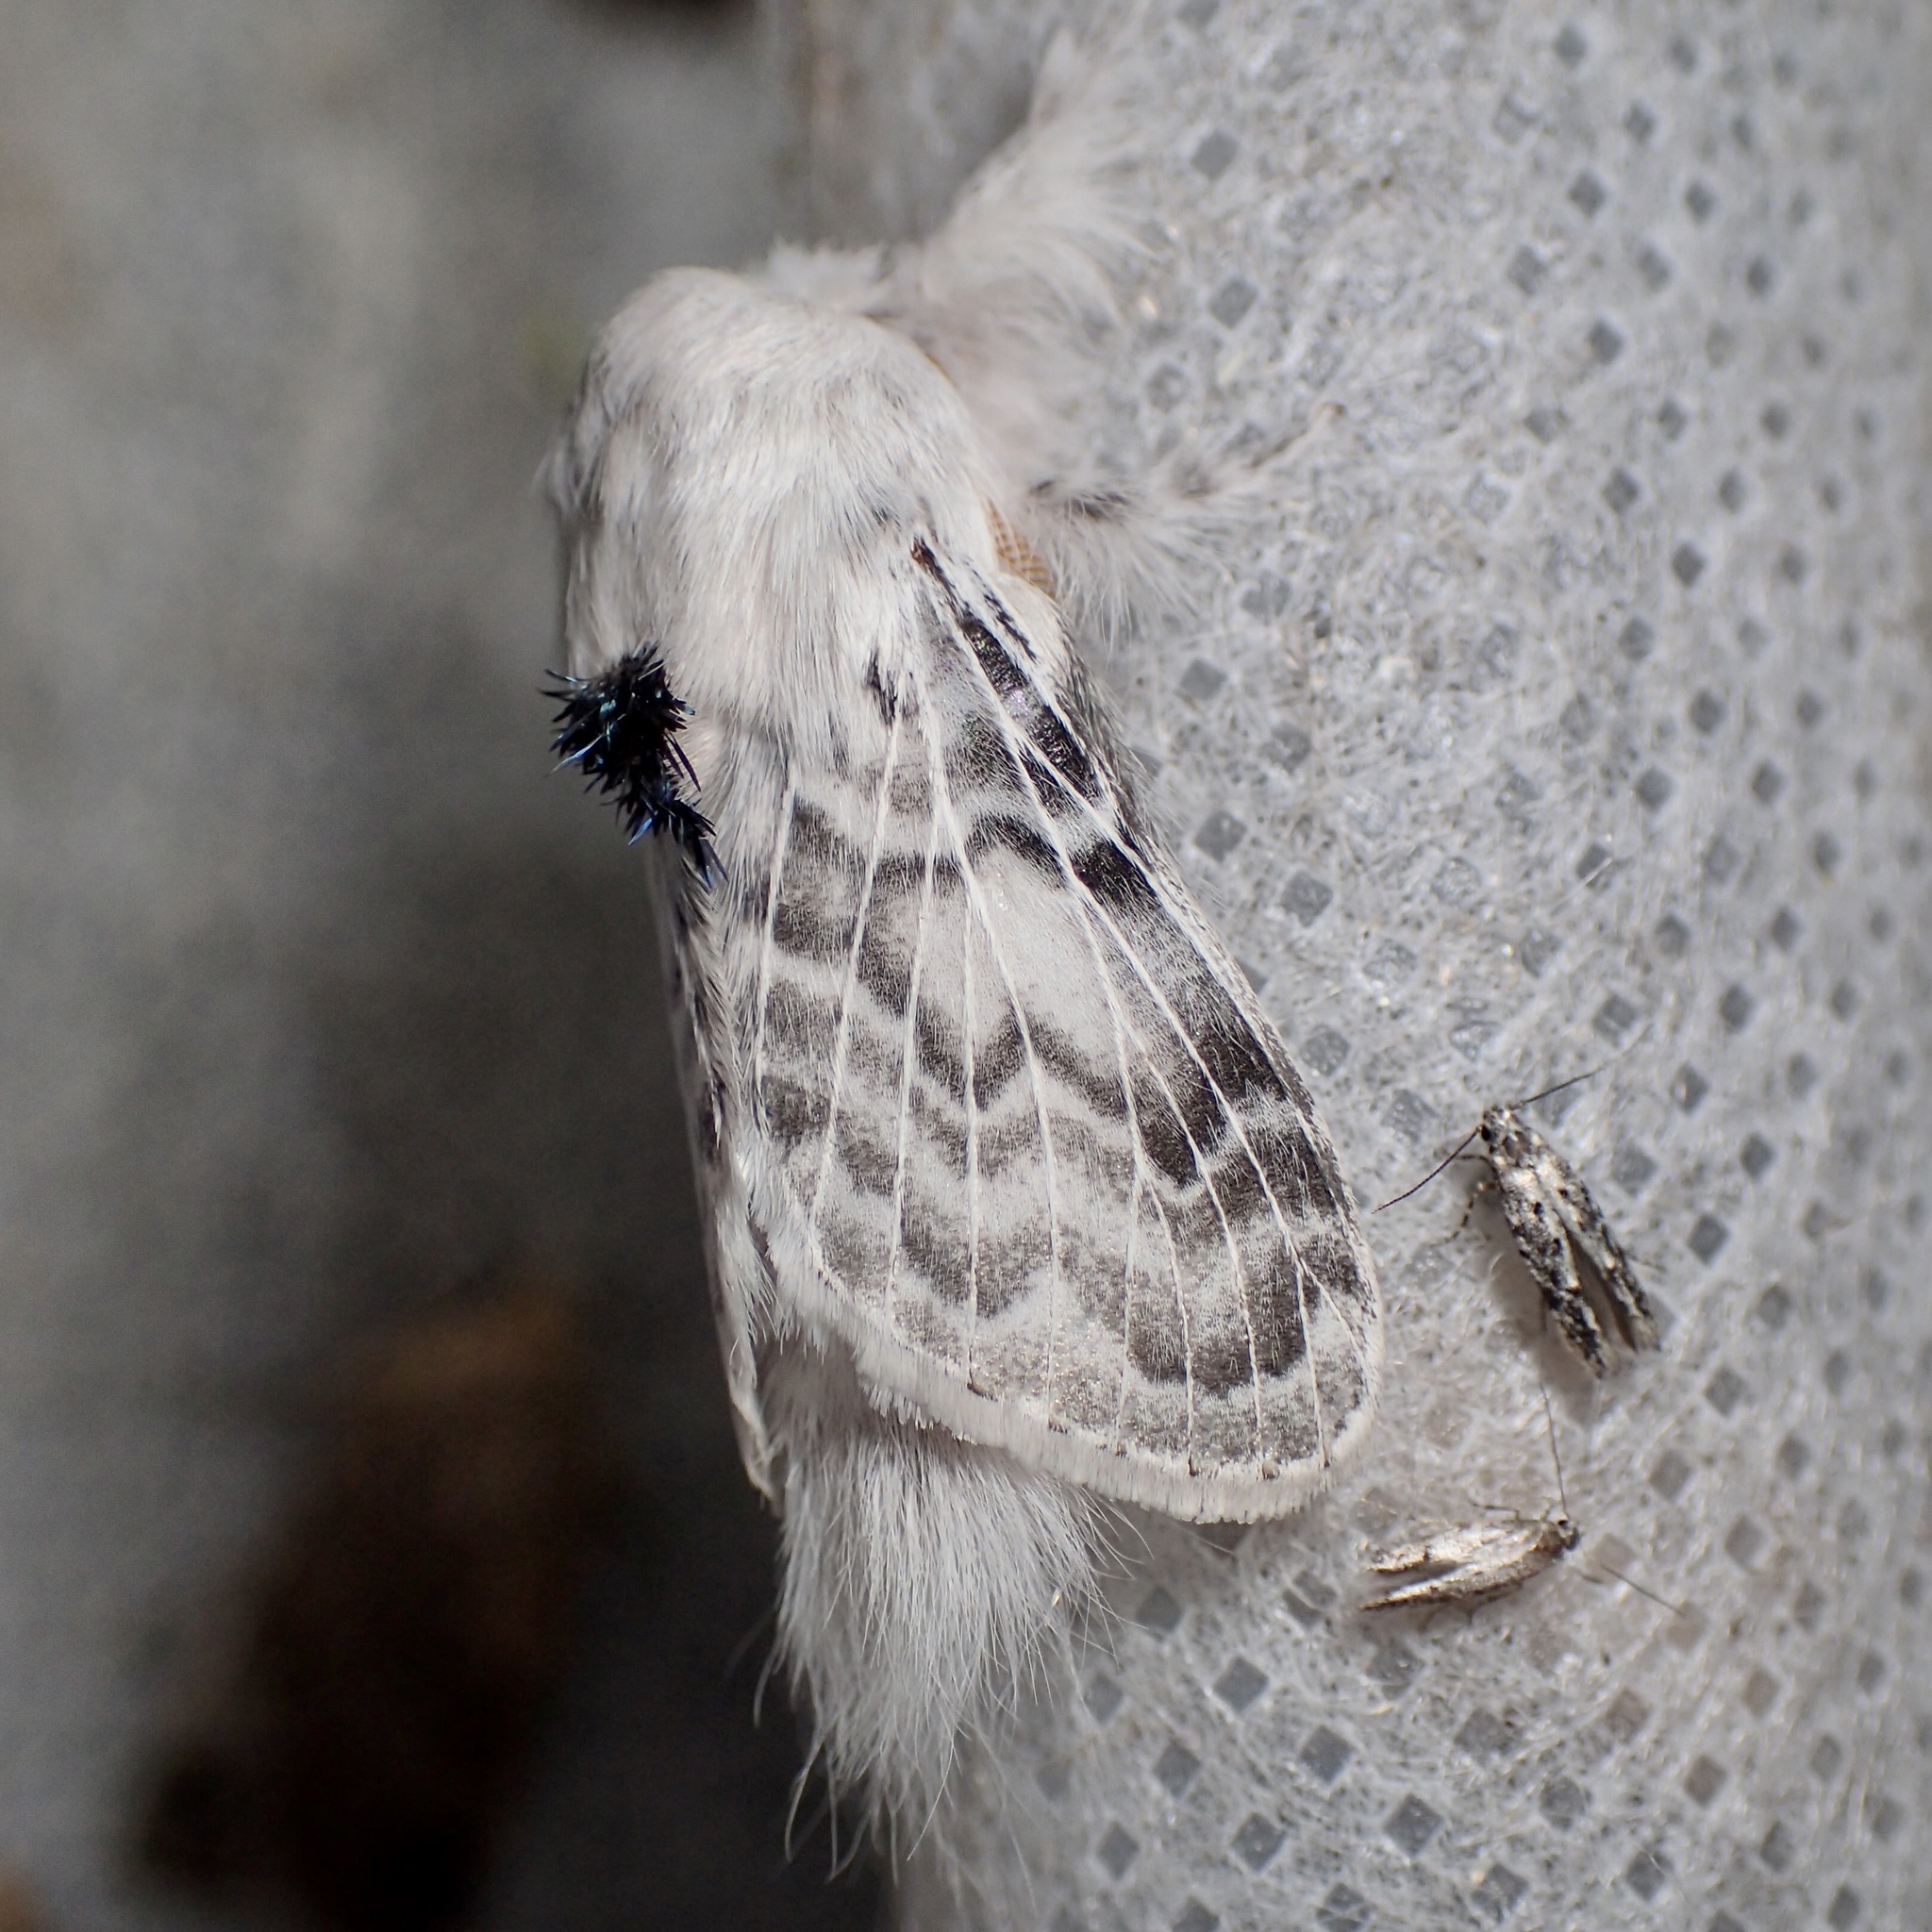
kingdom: Animalia
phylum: Arthropoda
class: Insecta
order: Lepidoptera
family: Lasiocampidae
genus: Apotolype
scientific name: Apotolype brevicrista
